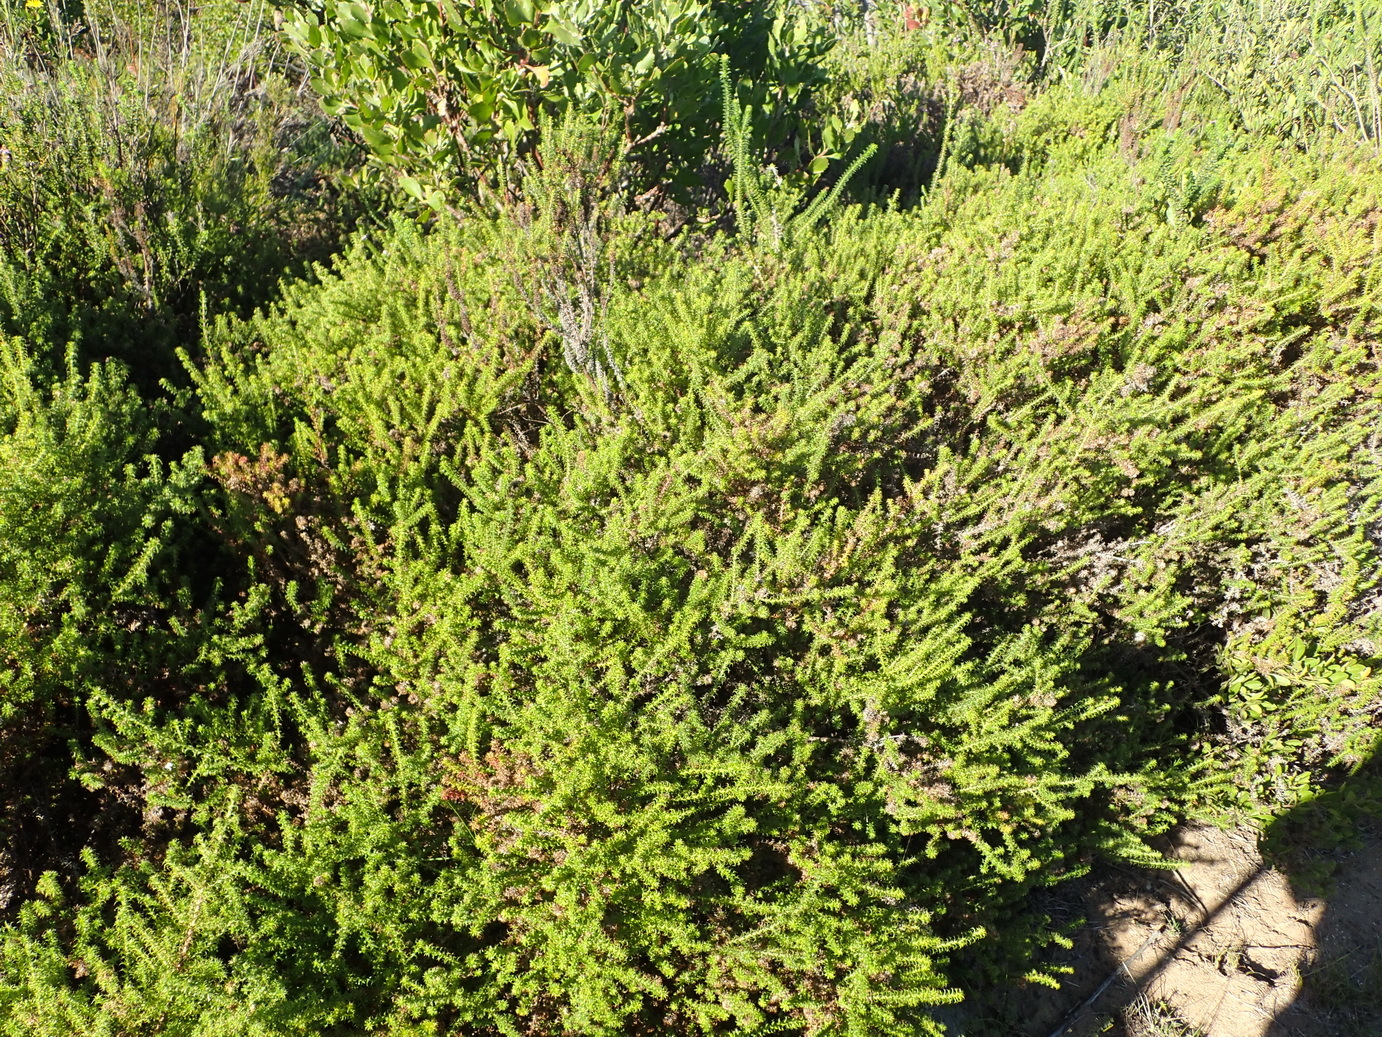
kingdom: Plantae
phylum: Tracheophyta
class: Magnoliopsida
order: Asterales
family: Asteraceae
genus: Cullumia
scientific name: Cullumia decurrens
